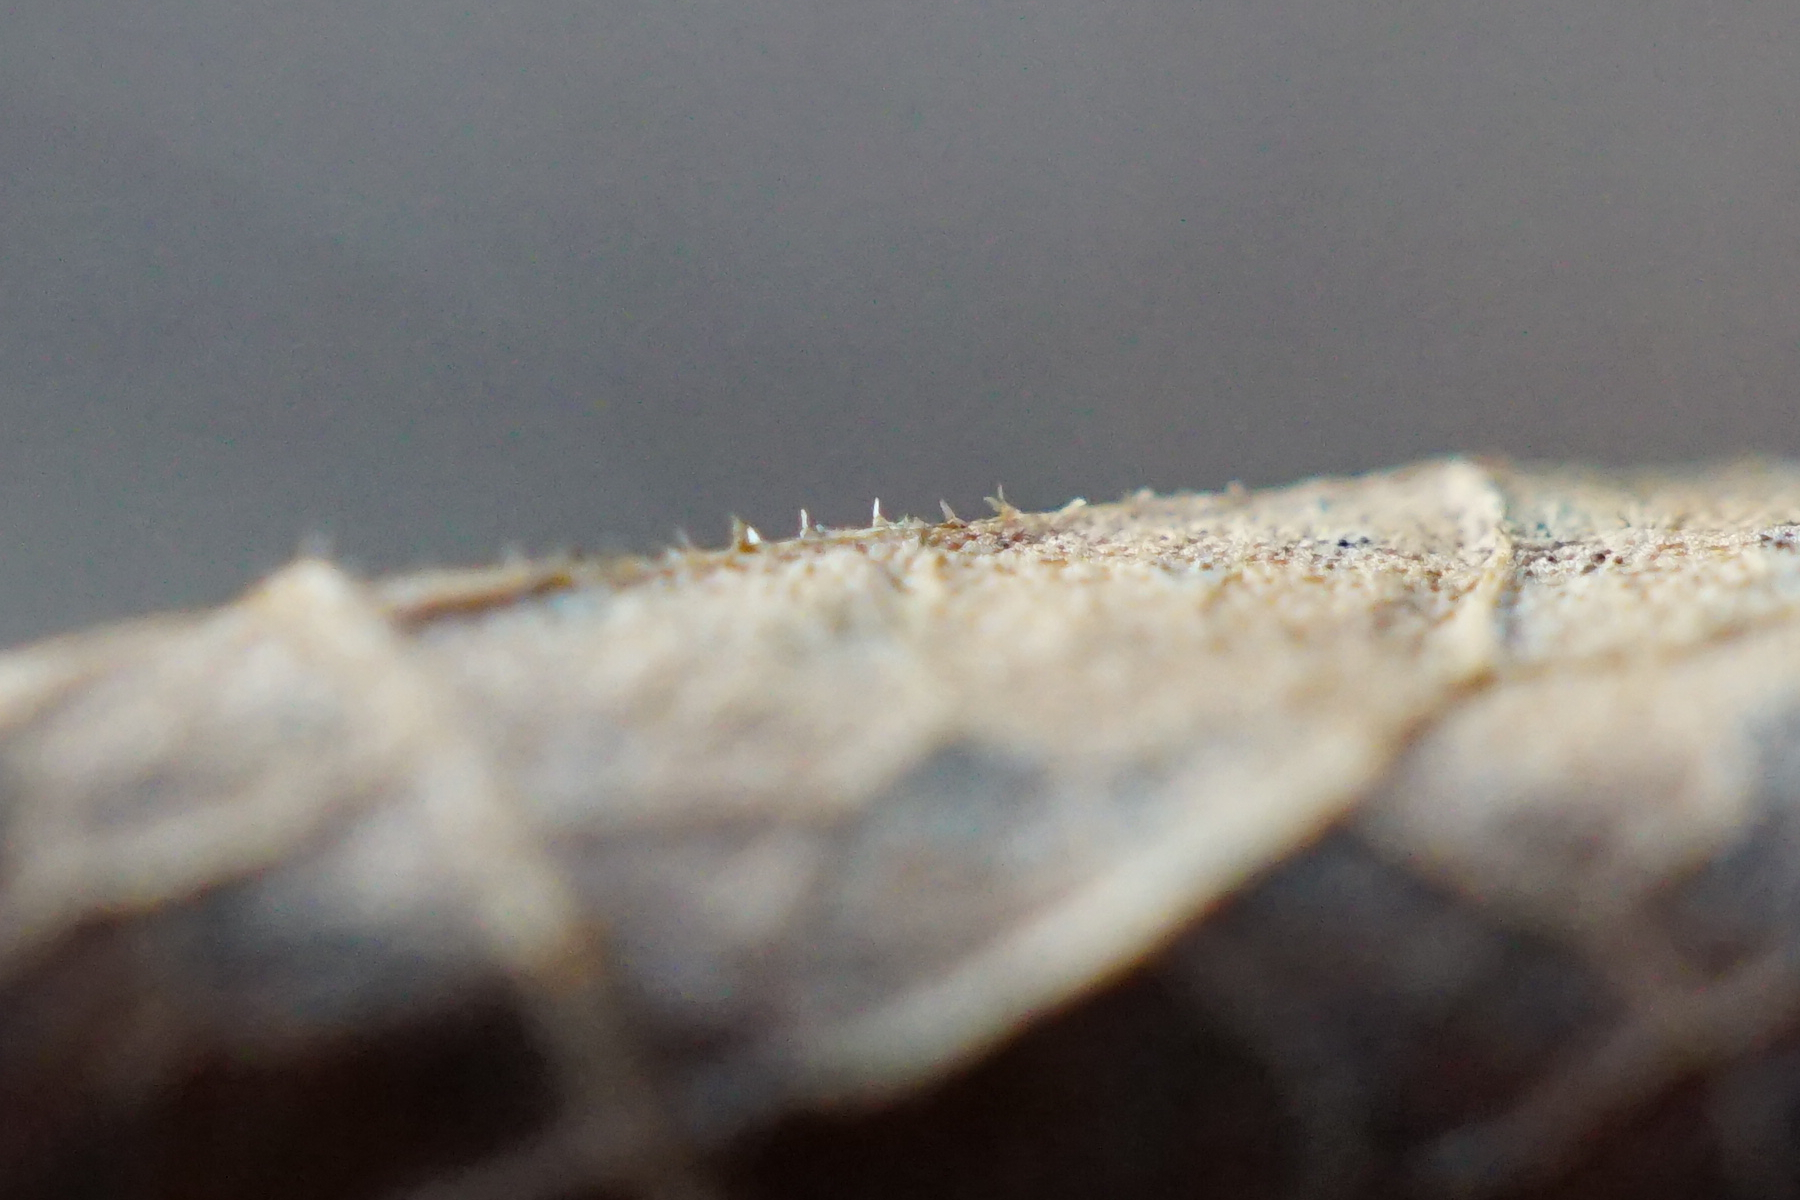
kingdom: Plantae
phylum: Tracheophyta
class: Magnoliopsida
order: Caryophyllales
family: Polygonaceae
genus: Reynoutria
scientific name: Reynoutria bohemica
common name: Bohemian knotweed
